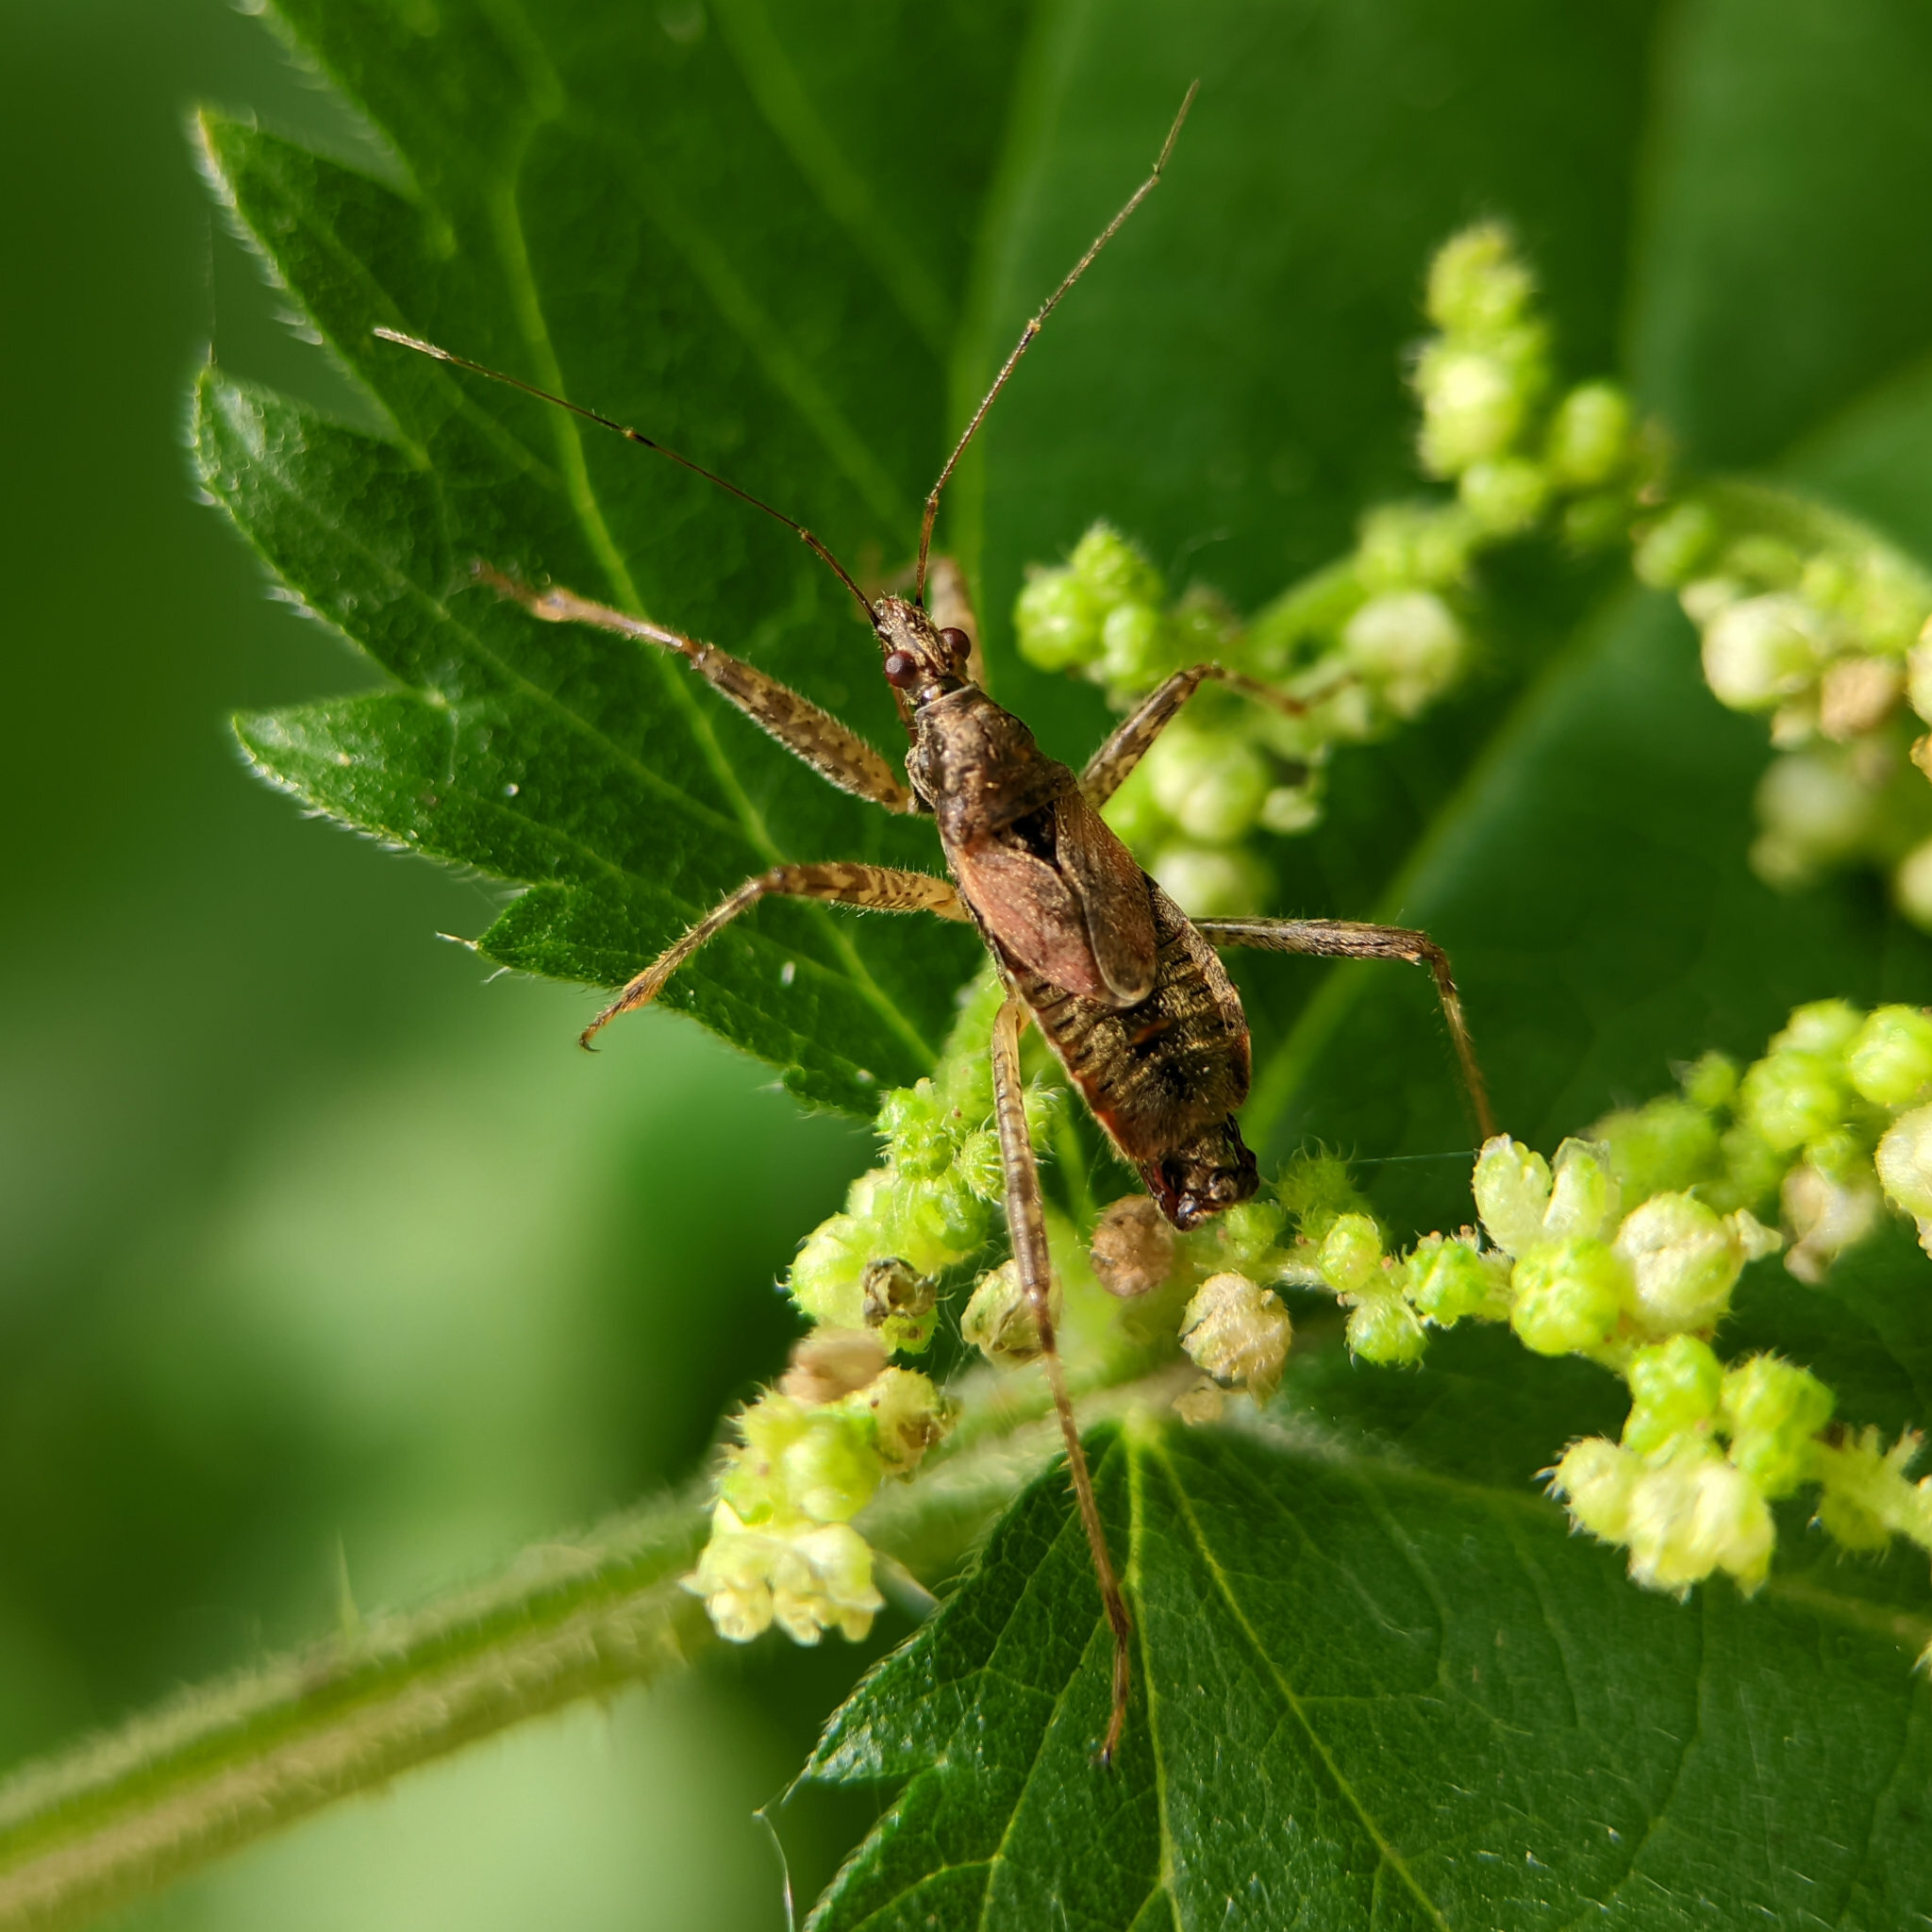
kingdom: Animalia
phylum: Arthropoda
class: Insecta
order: Hemiptera
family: Nabidae
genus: Himacerus
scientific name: Himacerus apterus
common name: Tree damsel bug
